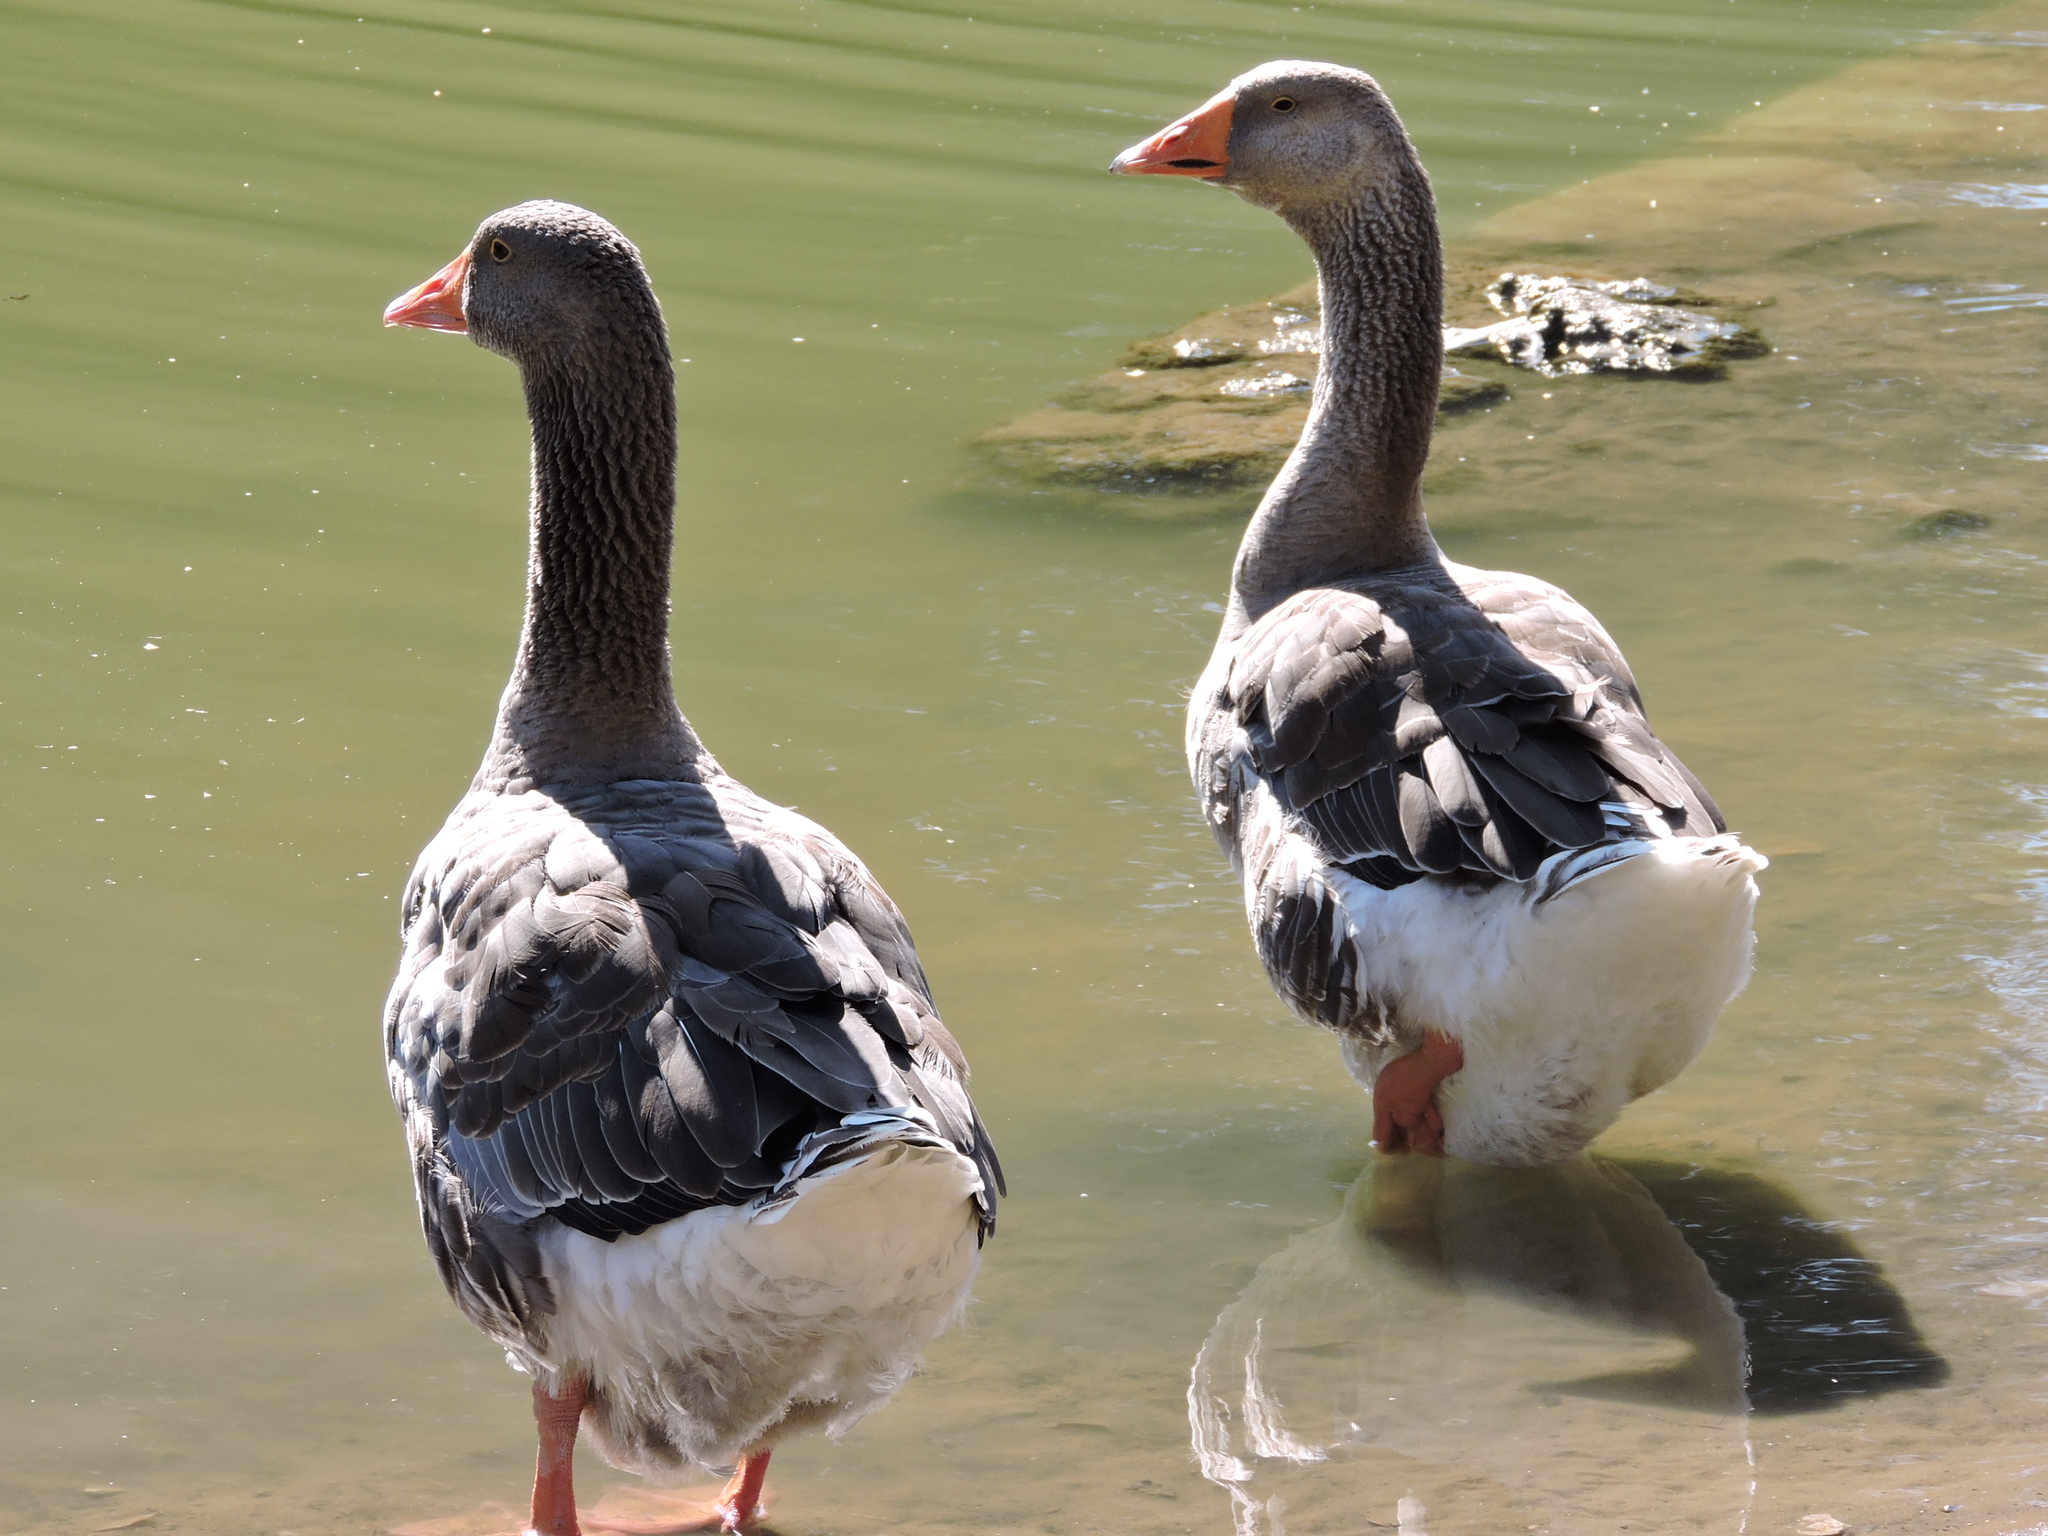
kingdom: Animalia
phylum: Chordata
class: Aves
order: Anseriformes
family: Anatidae
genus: Anser
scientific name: Anser
